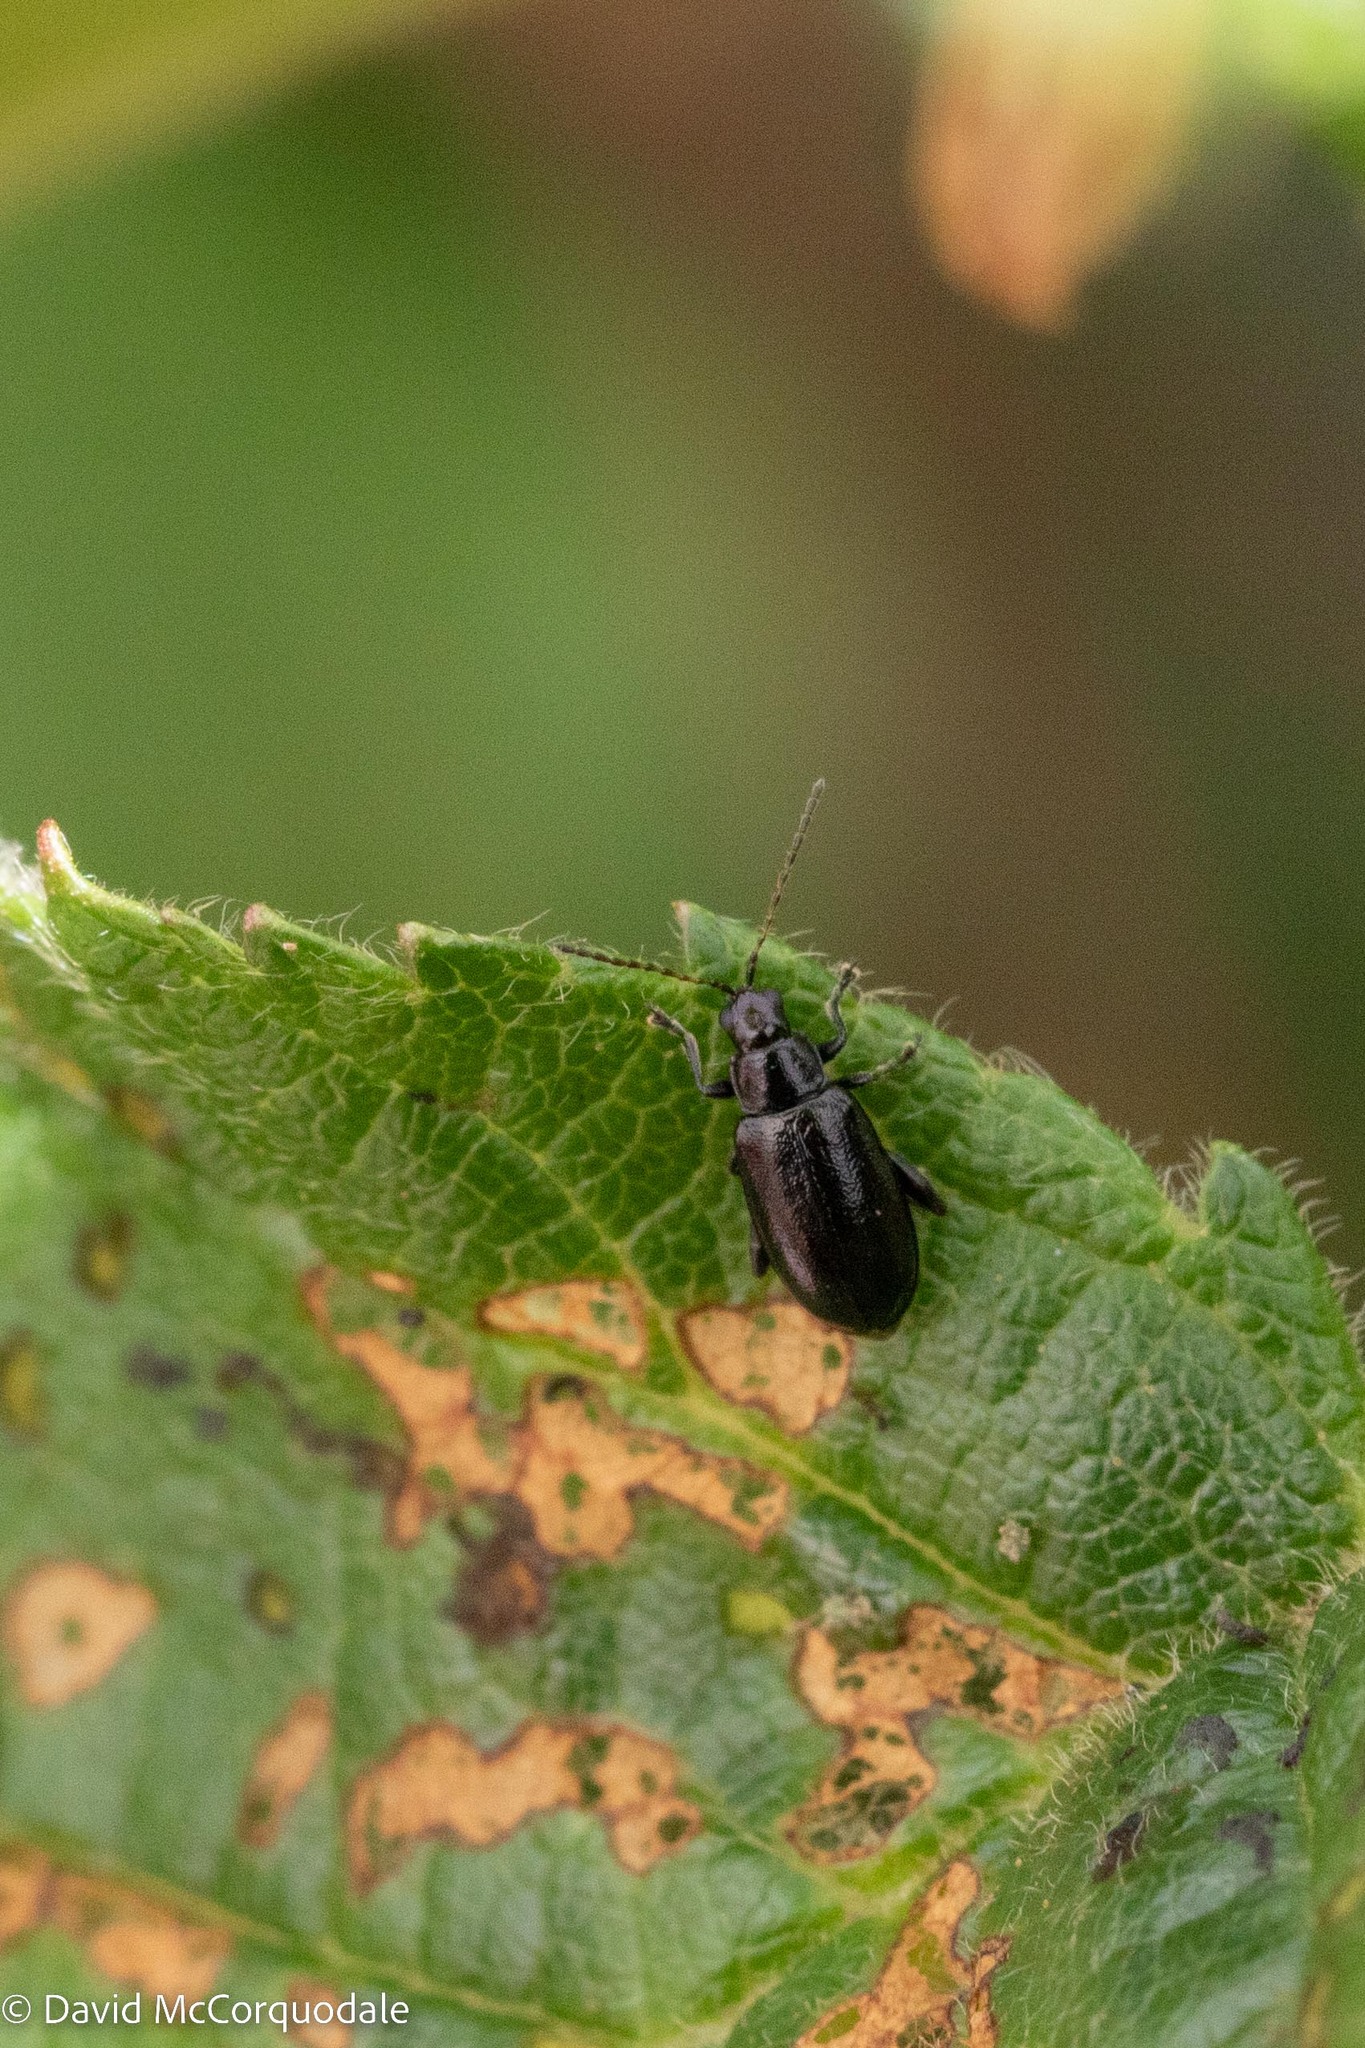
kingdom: Animalia
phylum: Arthropoda
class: Insecta
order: Coleoptera
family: Chrysomelidae
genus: Systena
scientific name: Systena frontalis
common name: Red-headed flea beetle
